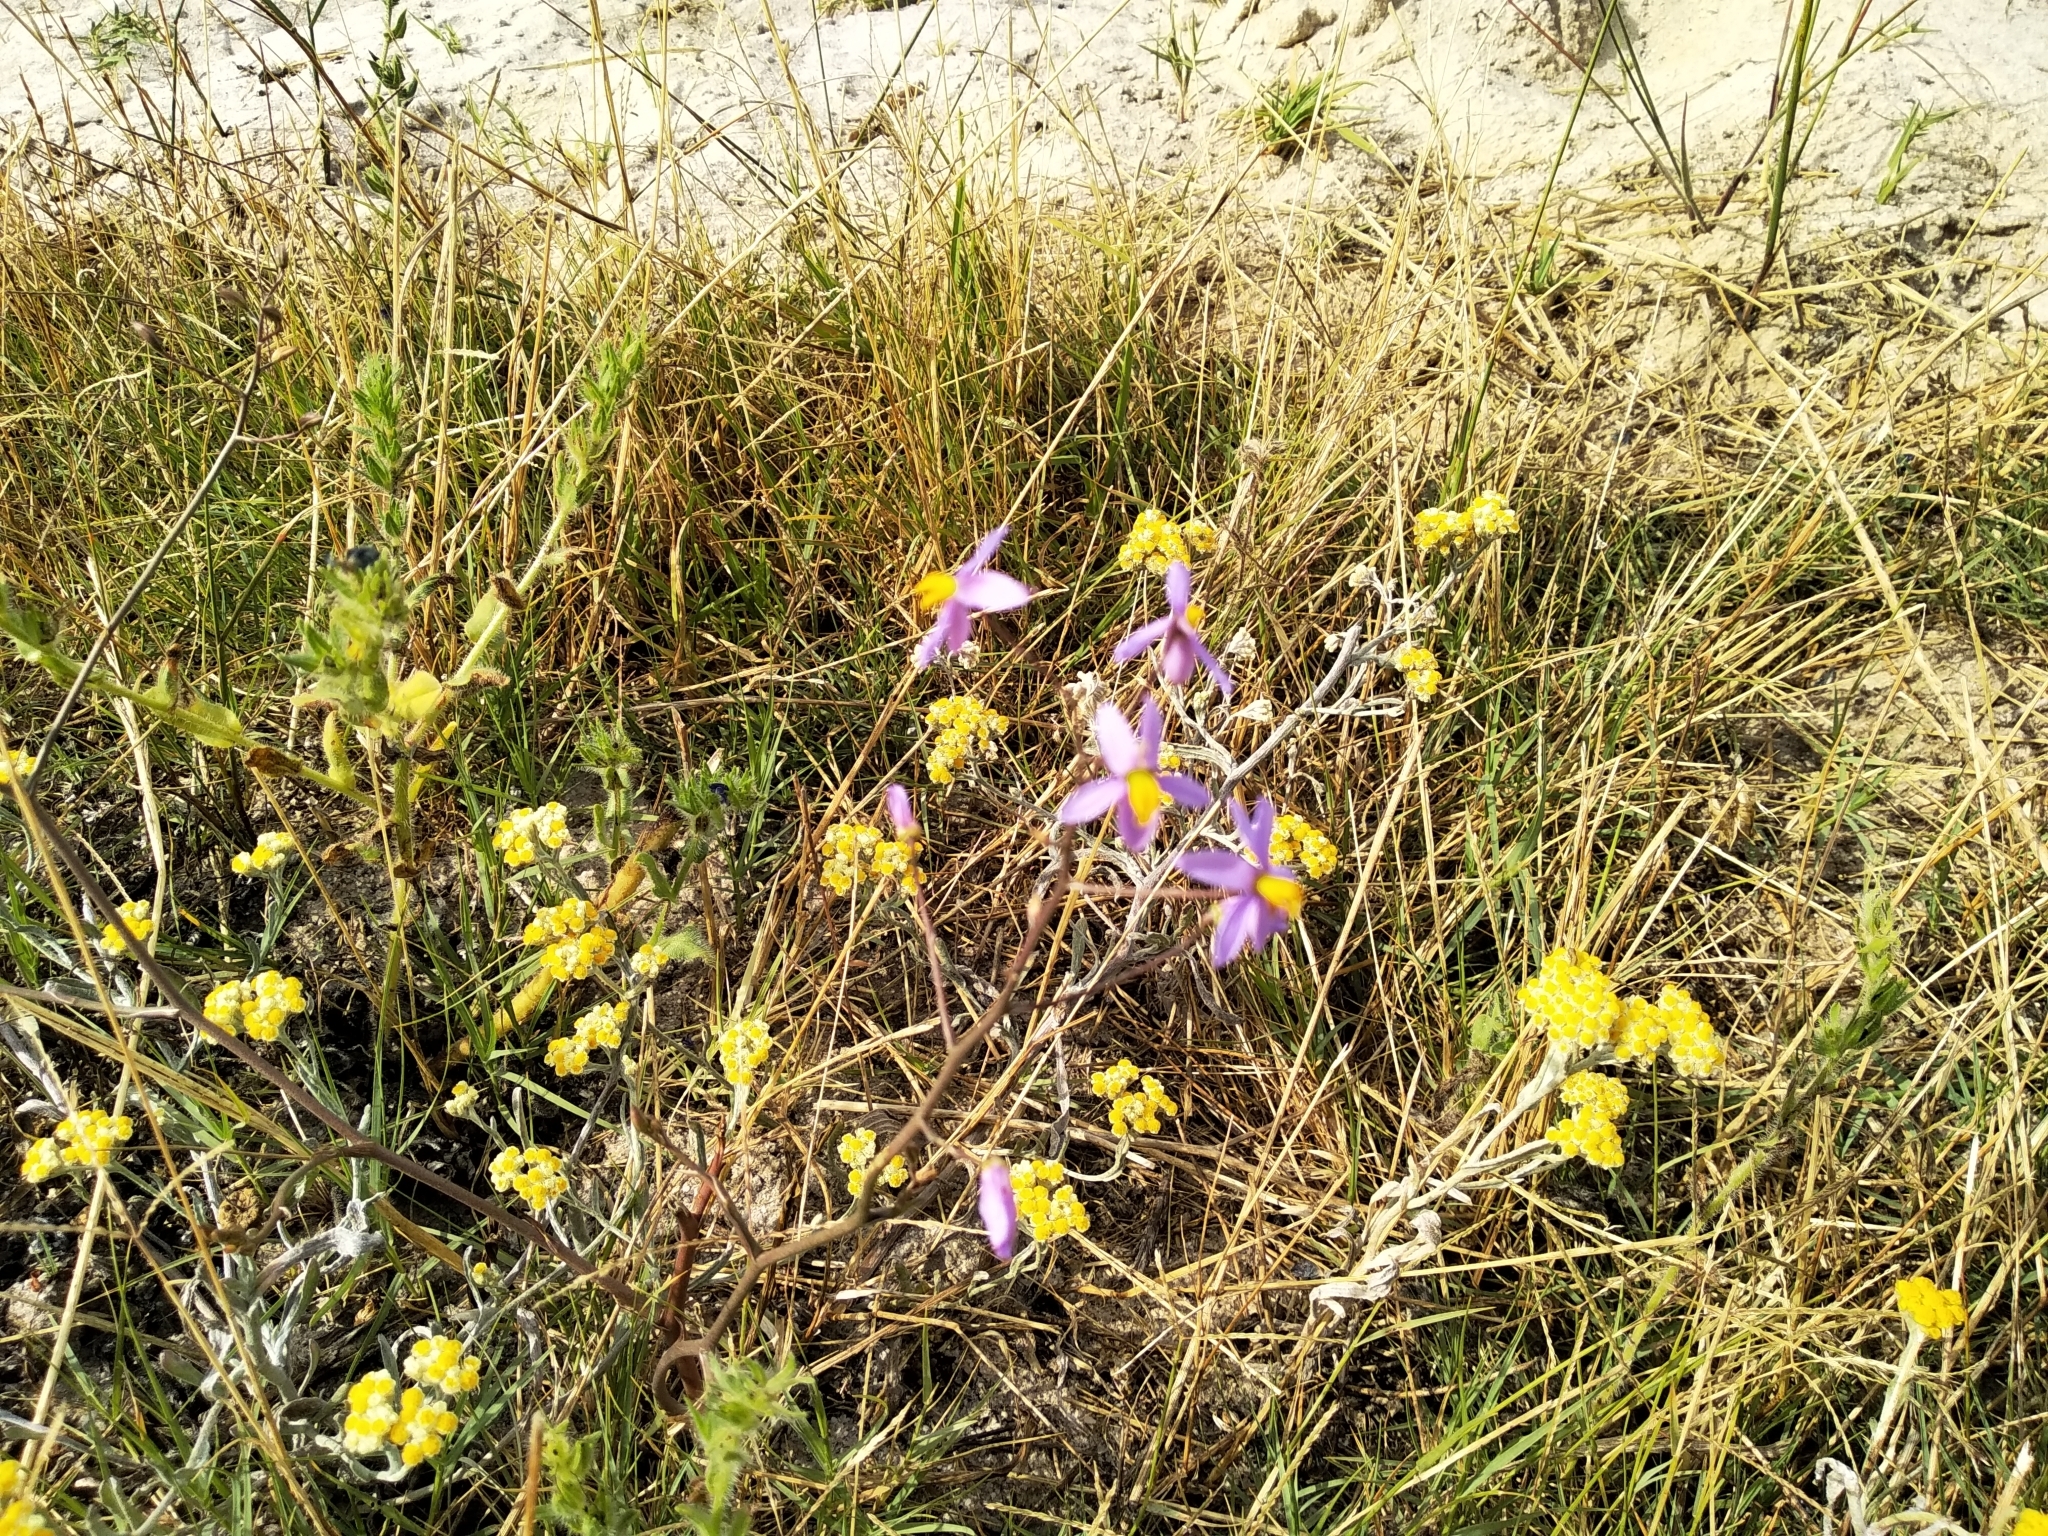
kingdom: Plantae
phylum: Tracheophyta
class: Liliopsida
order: Asparagales
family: Tecophilaeaceae
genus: Cyanella
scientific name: Cyanella hyacinthoides
